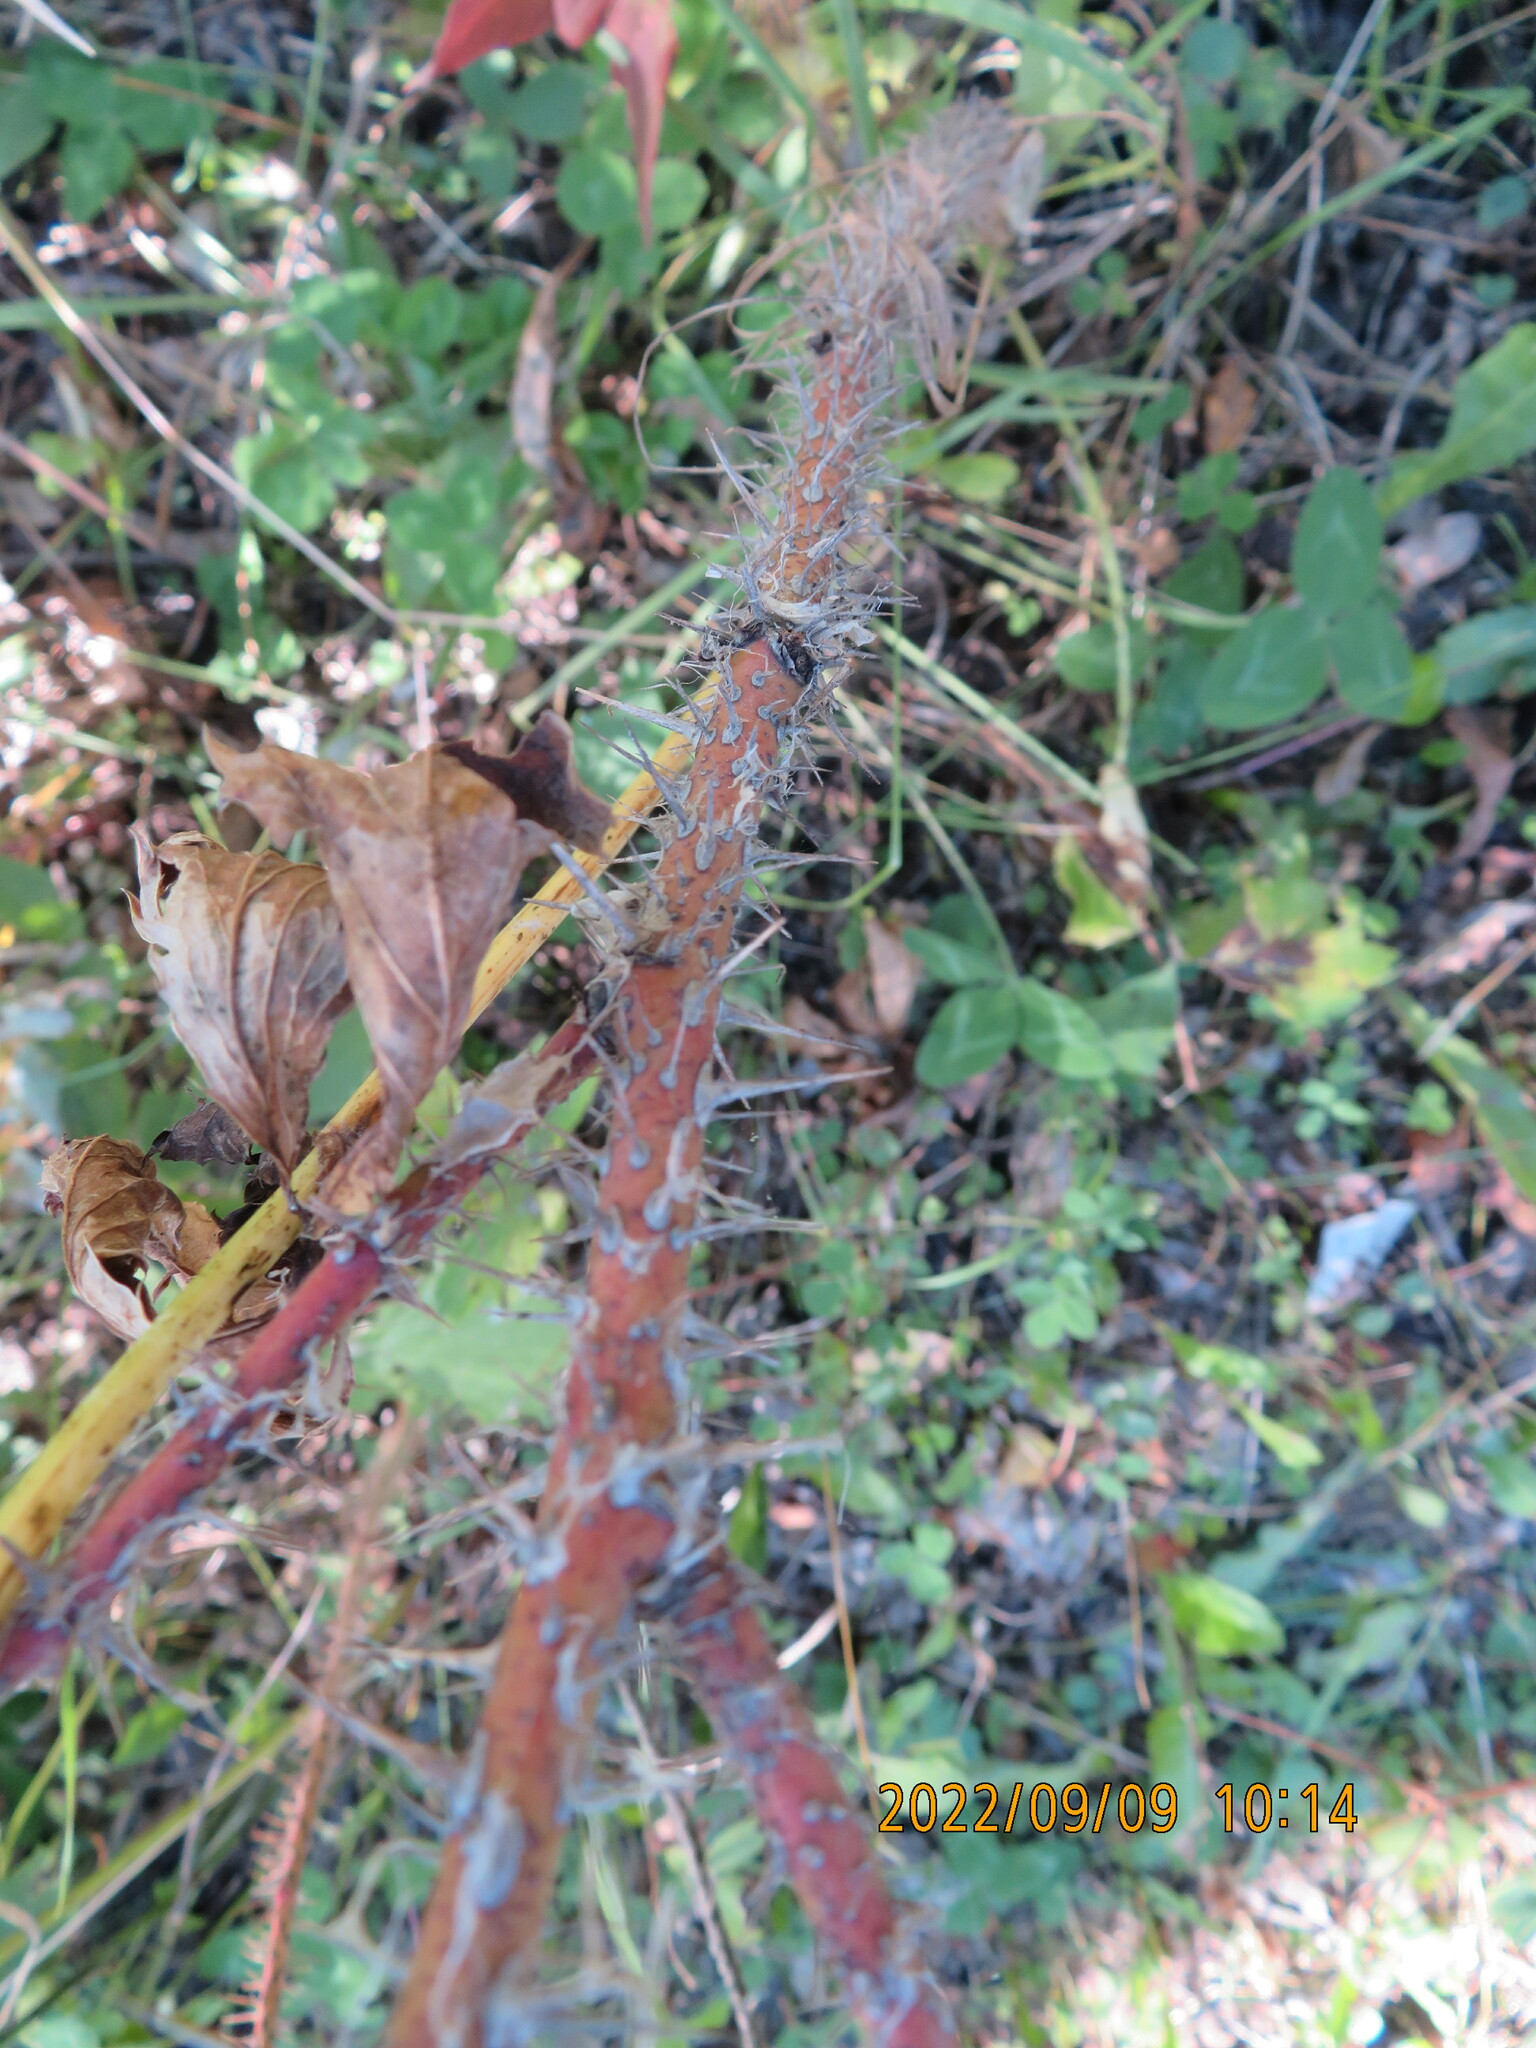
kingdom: Plantae
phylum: Tracheophyta
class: Magnoliopsida
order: Rosales
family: Rosaceae
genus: Rosa
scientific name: Rosa acicularis
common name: Prickly rose
